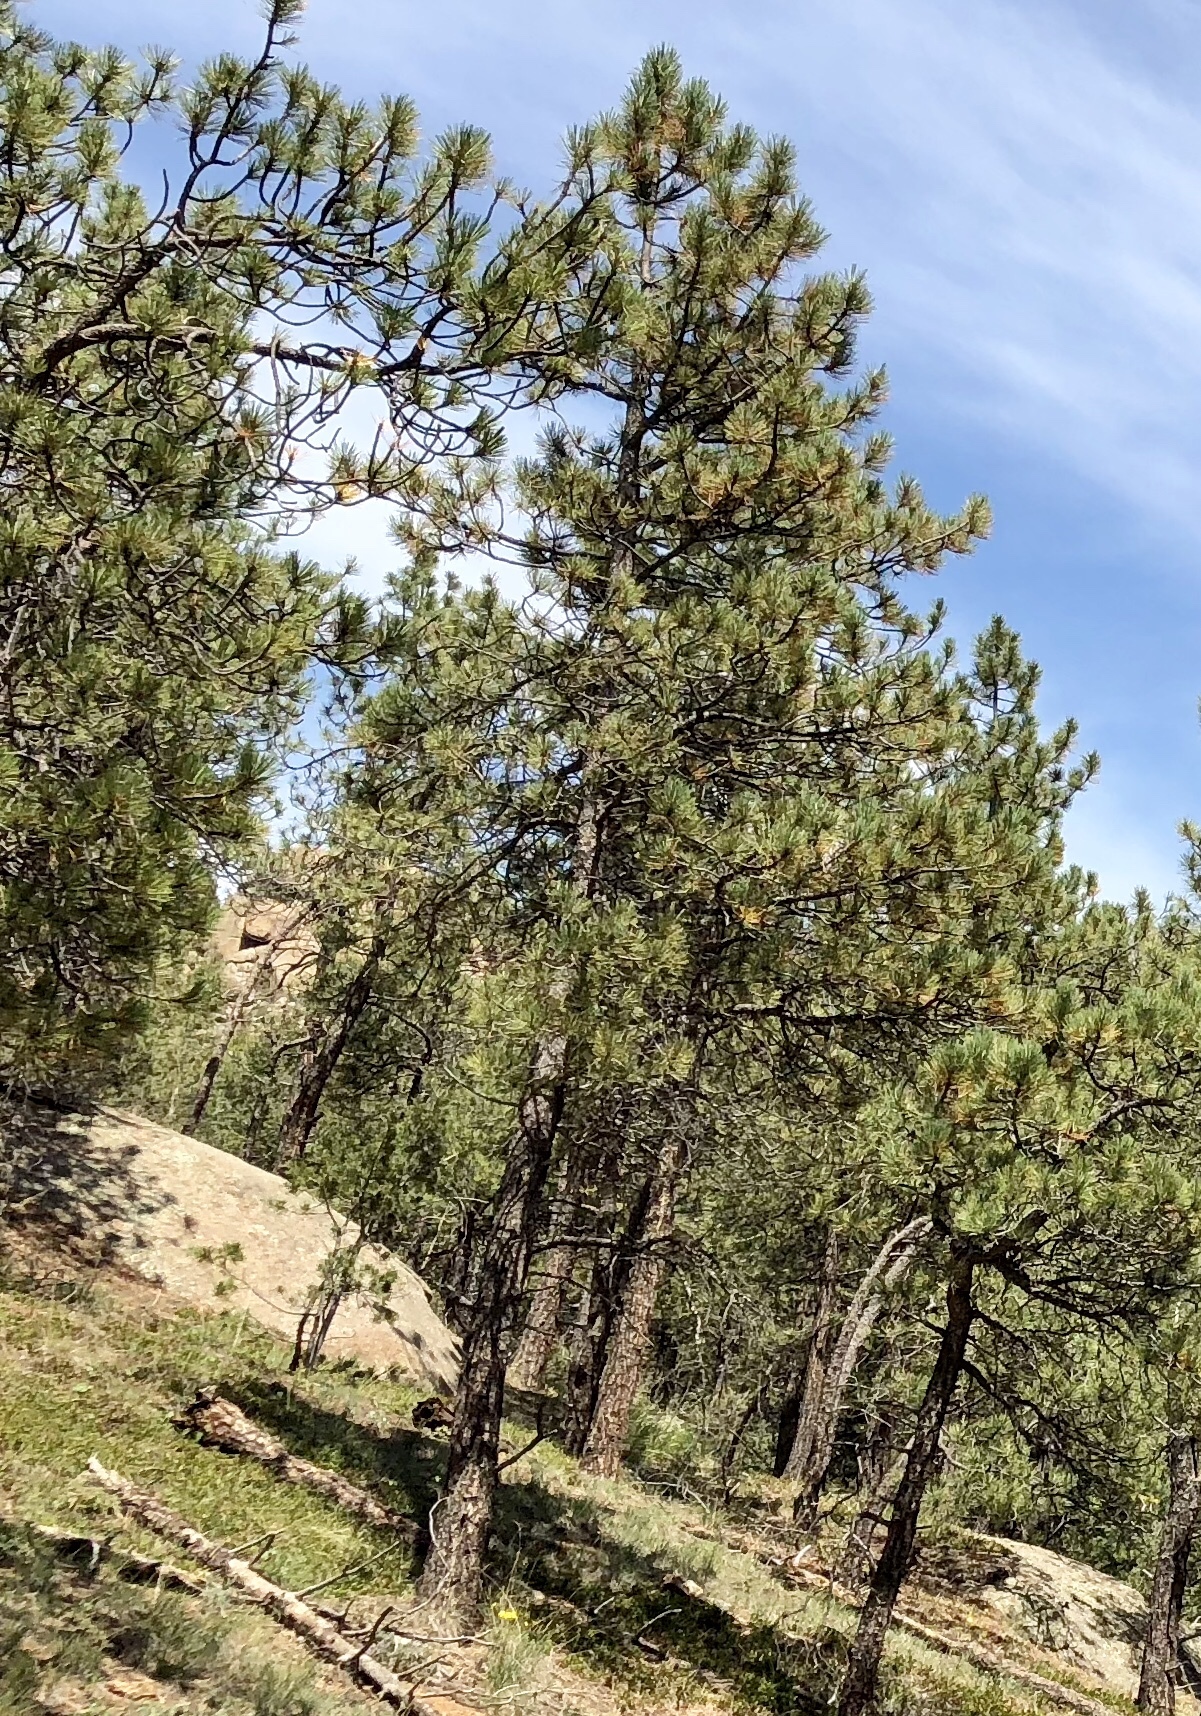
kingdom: Plantae
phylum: Tracheophyta
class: Pinopsida
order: Pinales
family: Pinaceae
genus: Pinus
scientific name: Pinus ponderosa
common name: Western yellow-pine
